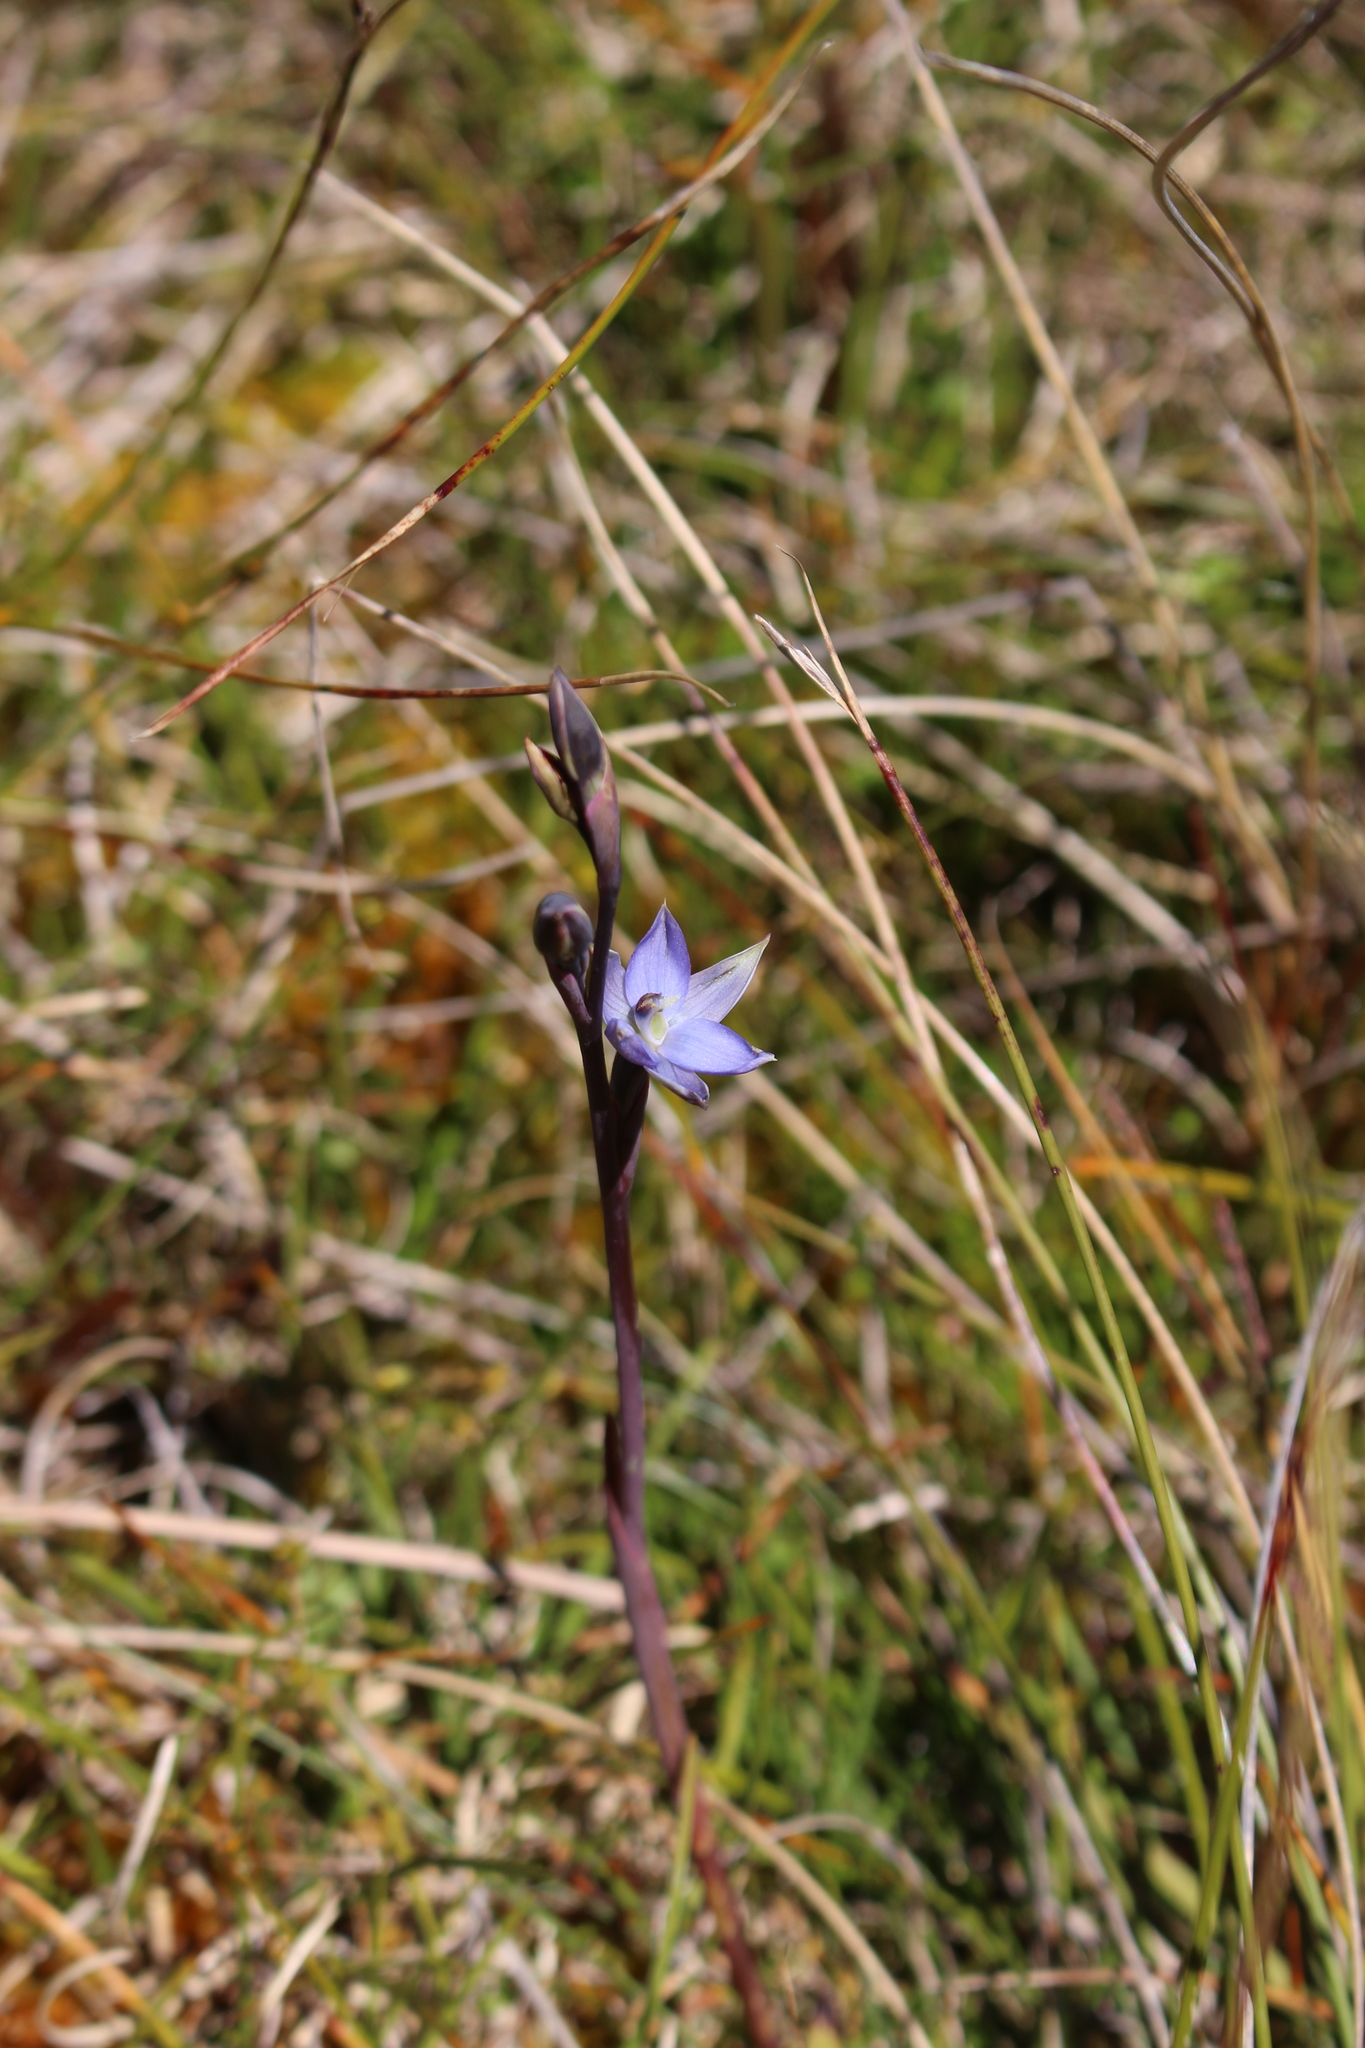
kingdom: Plantae
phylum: Tracheophyta
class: Liliopsida
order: Asparagales
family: Orchidaceae
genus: Thelymitra
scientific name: Thelymitra hatchii
